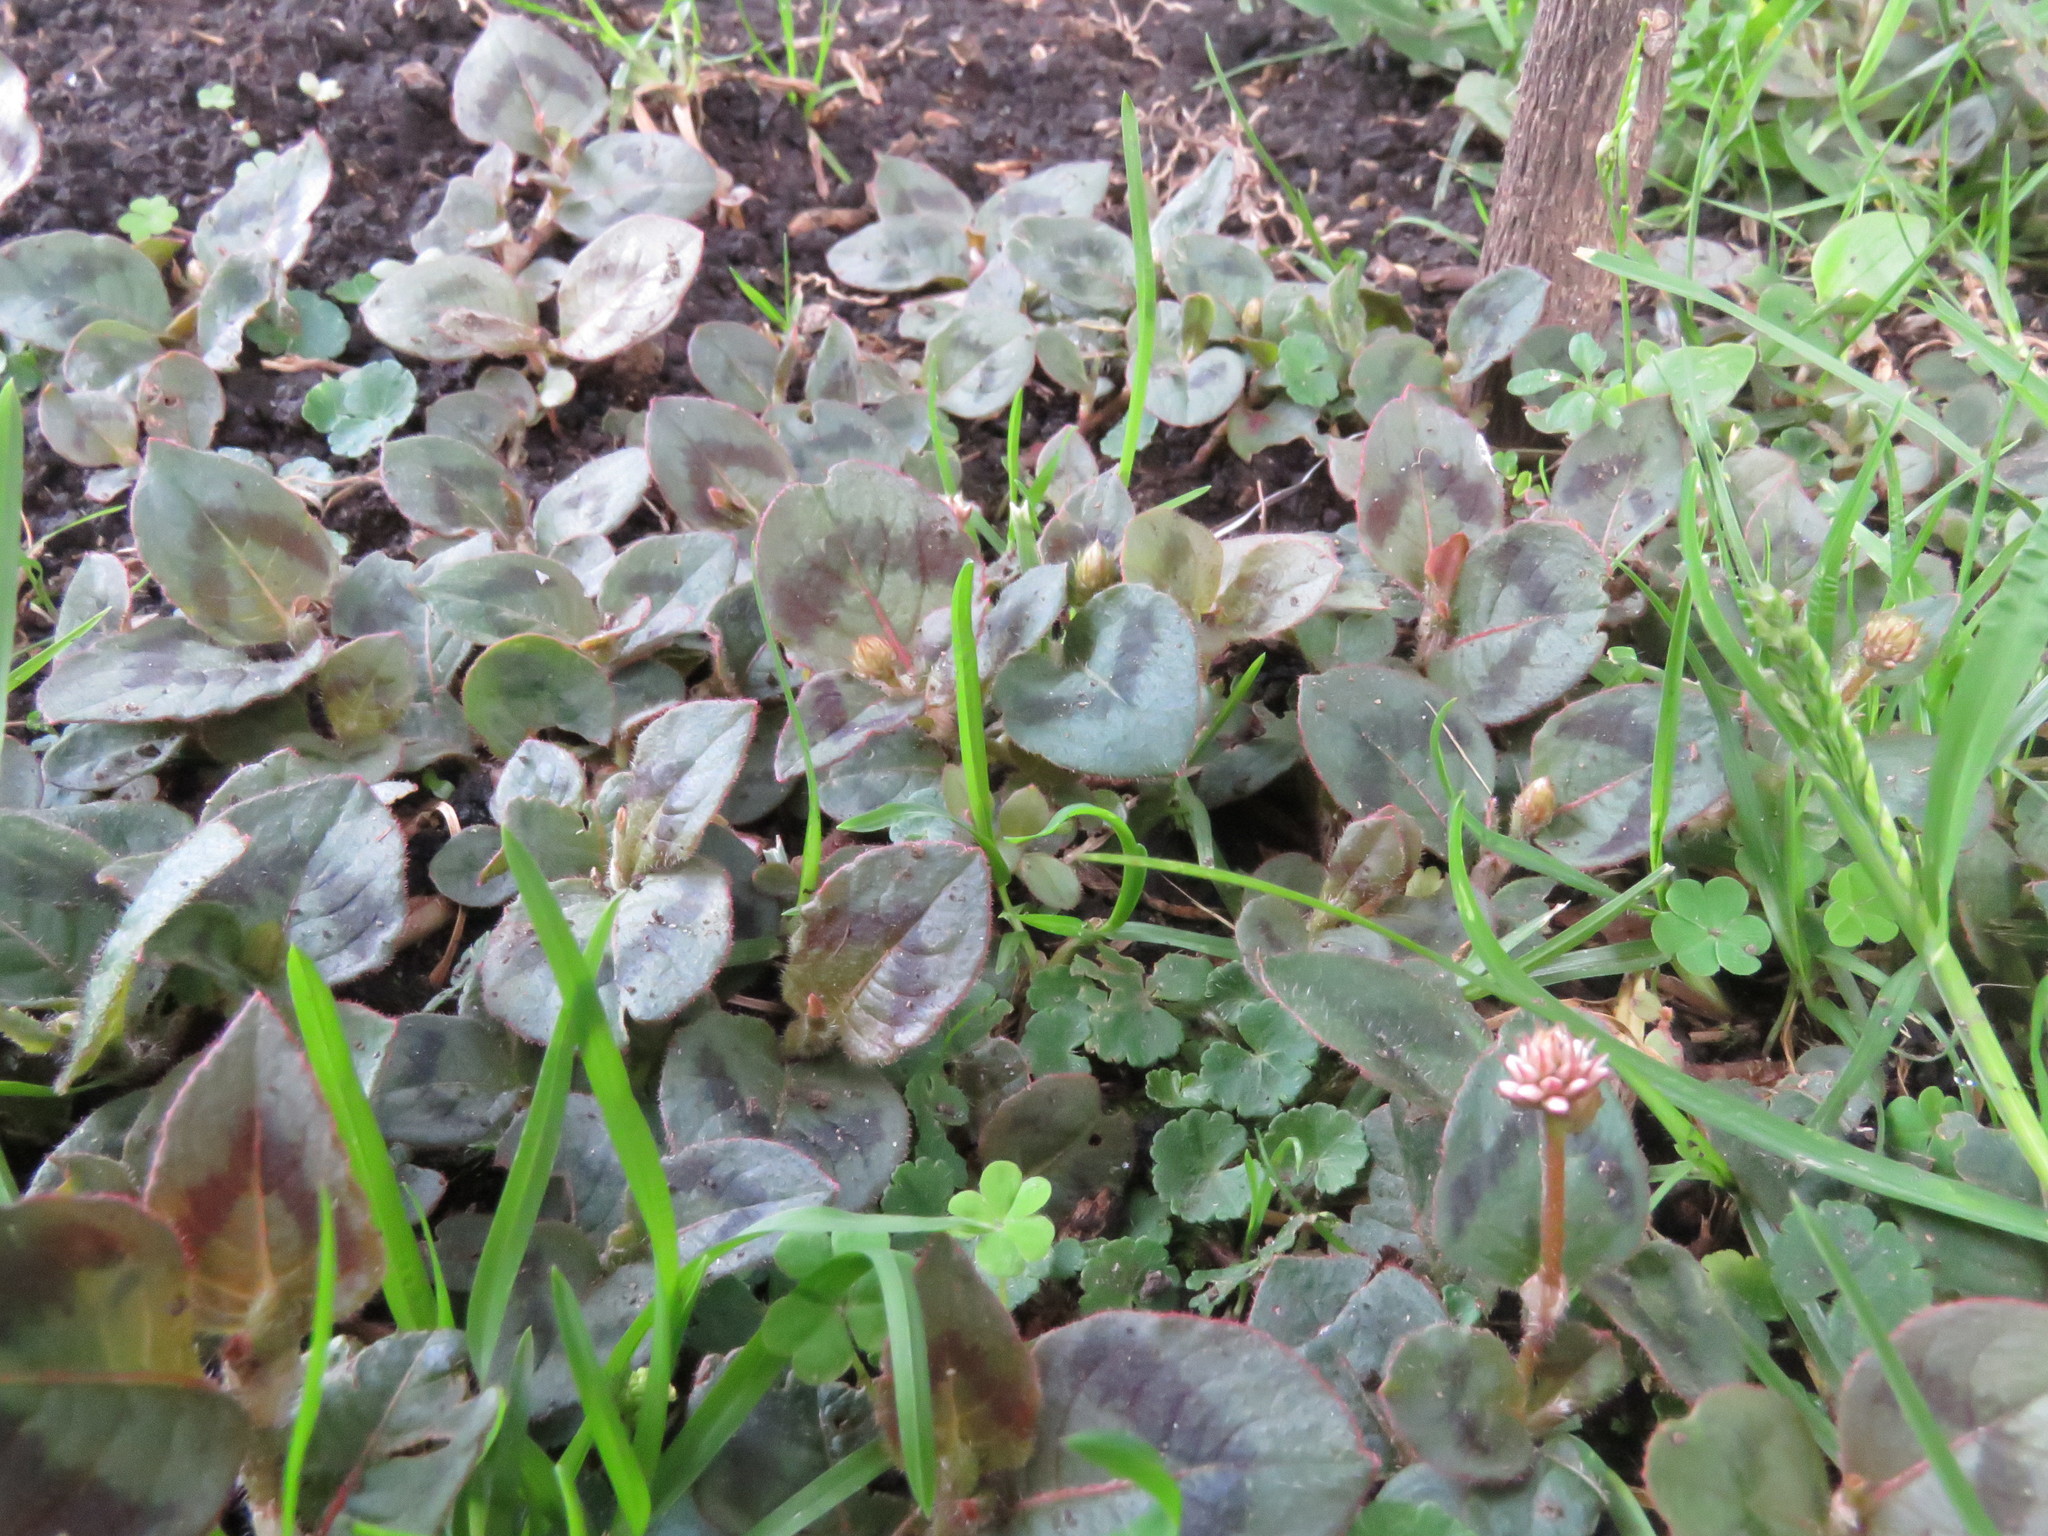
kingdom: Plantae
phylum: Tracheophyta
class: Magnoliopsida
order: Caryophyllales
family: Polygonaceae
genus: Persicaria
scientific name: Persicaria capitata
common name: Pinkhead smartweed
